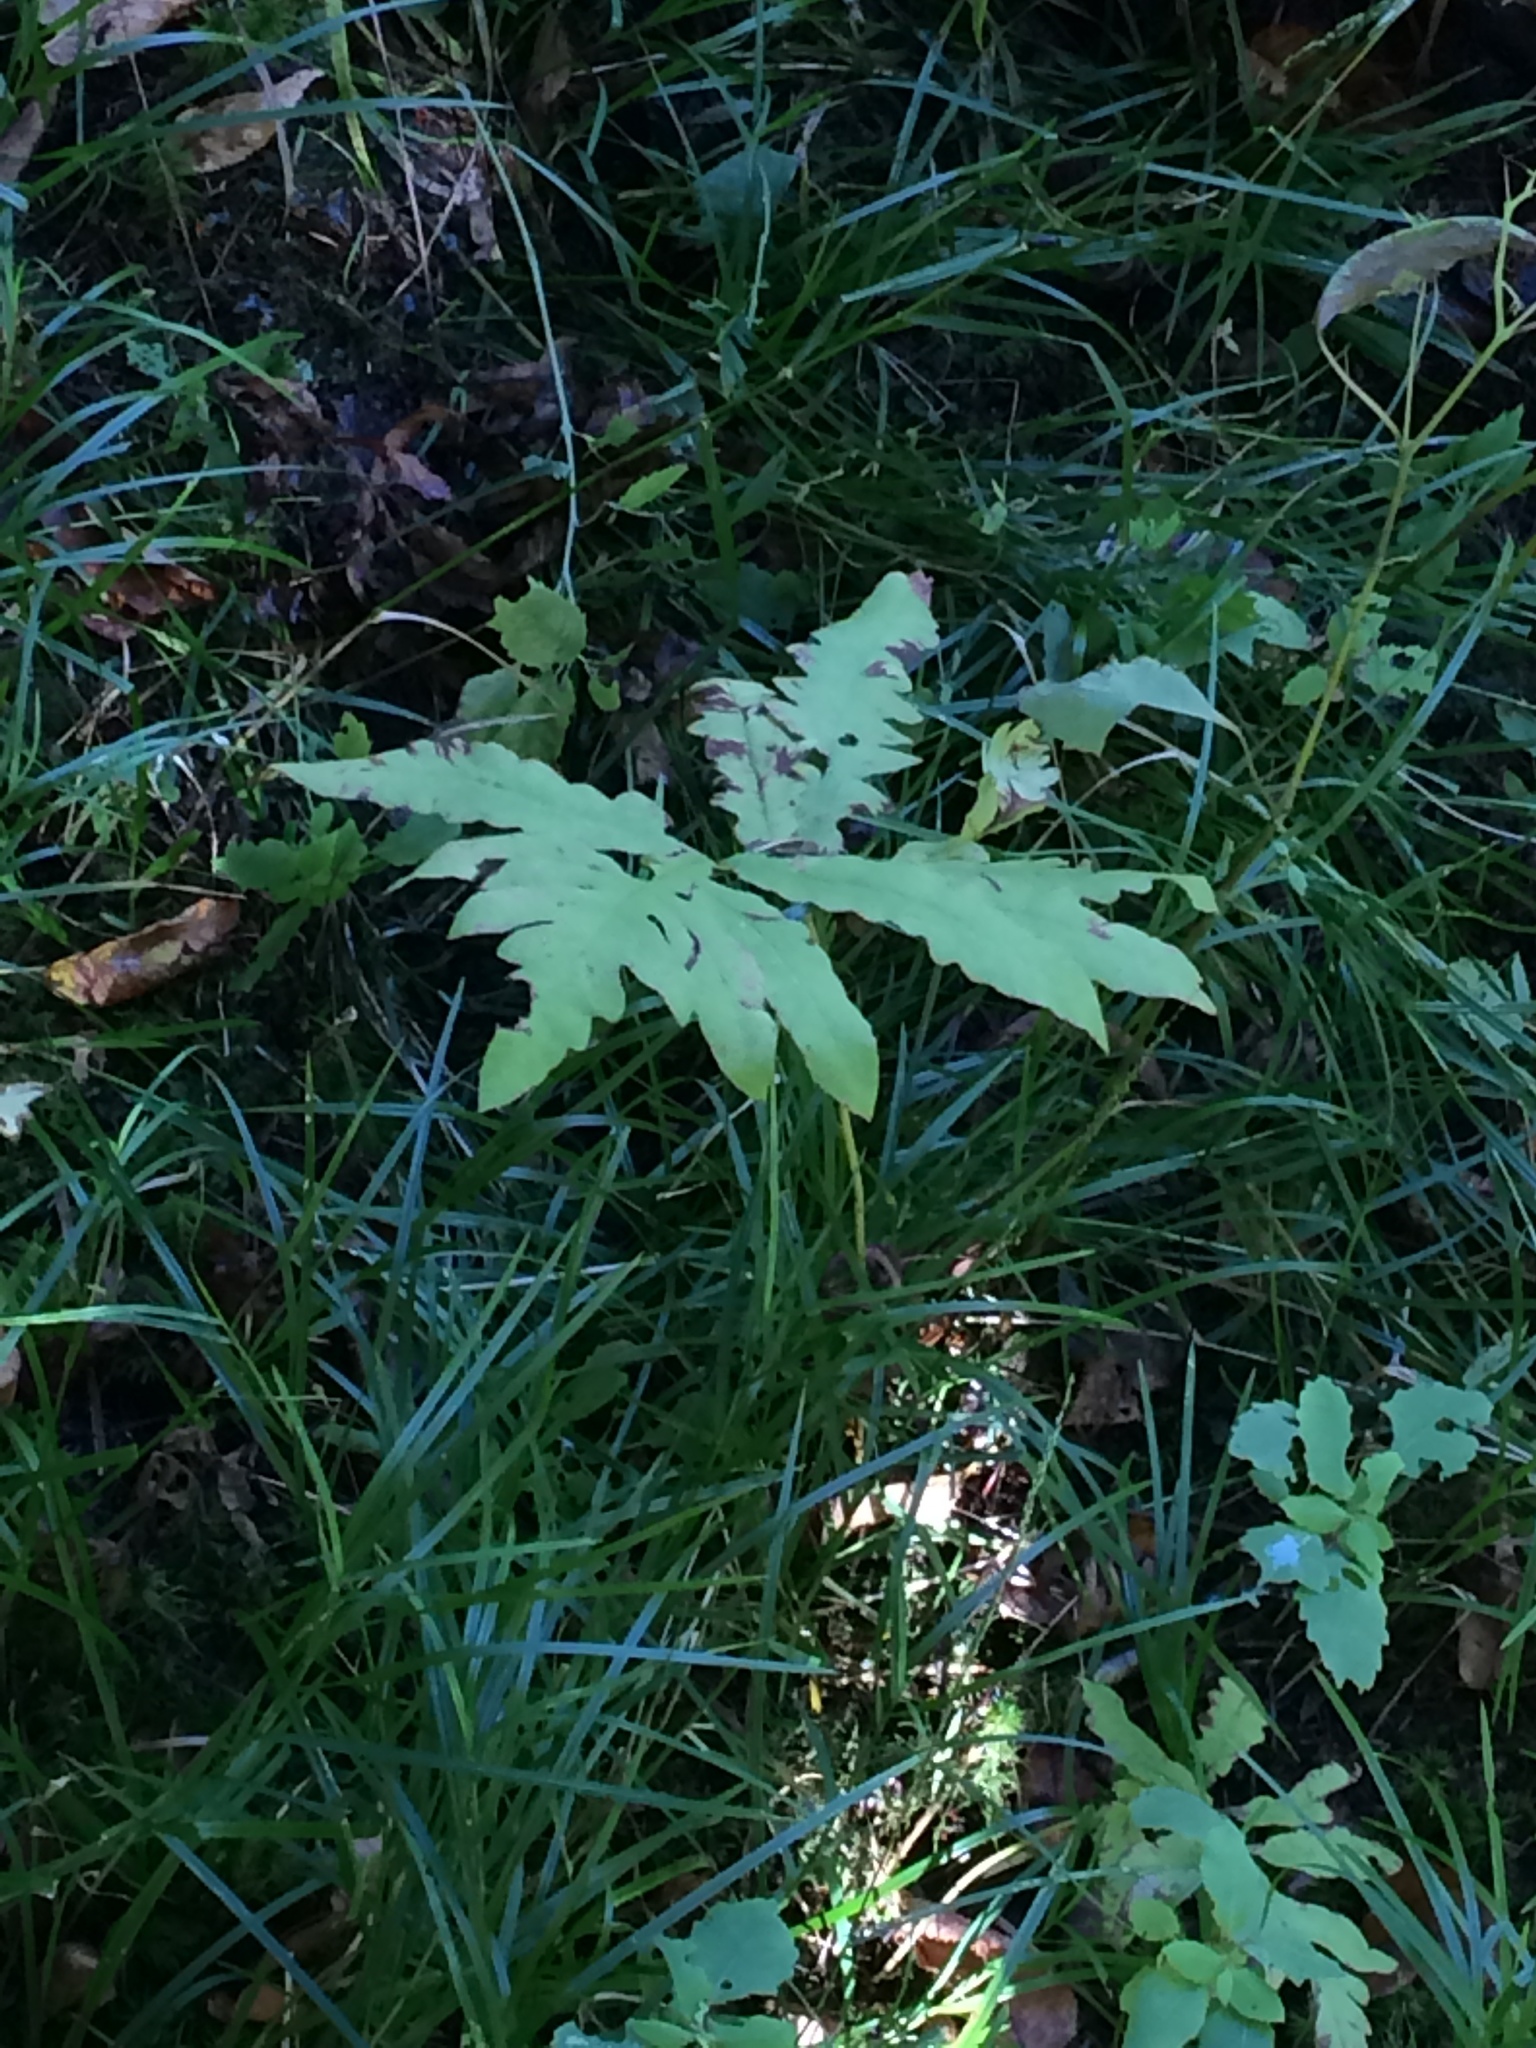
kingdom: Plantae
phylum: Tracheophyta
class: Polypodiopsida
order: Polypodiales
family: Onocleaceae
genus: Onoclea
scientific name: Onoclea sensibilis
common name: Sensitive fern
